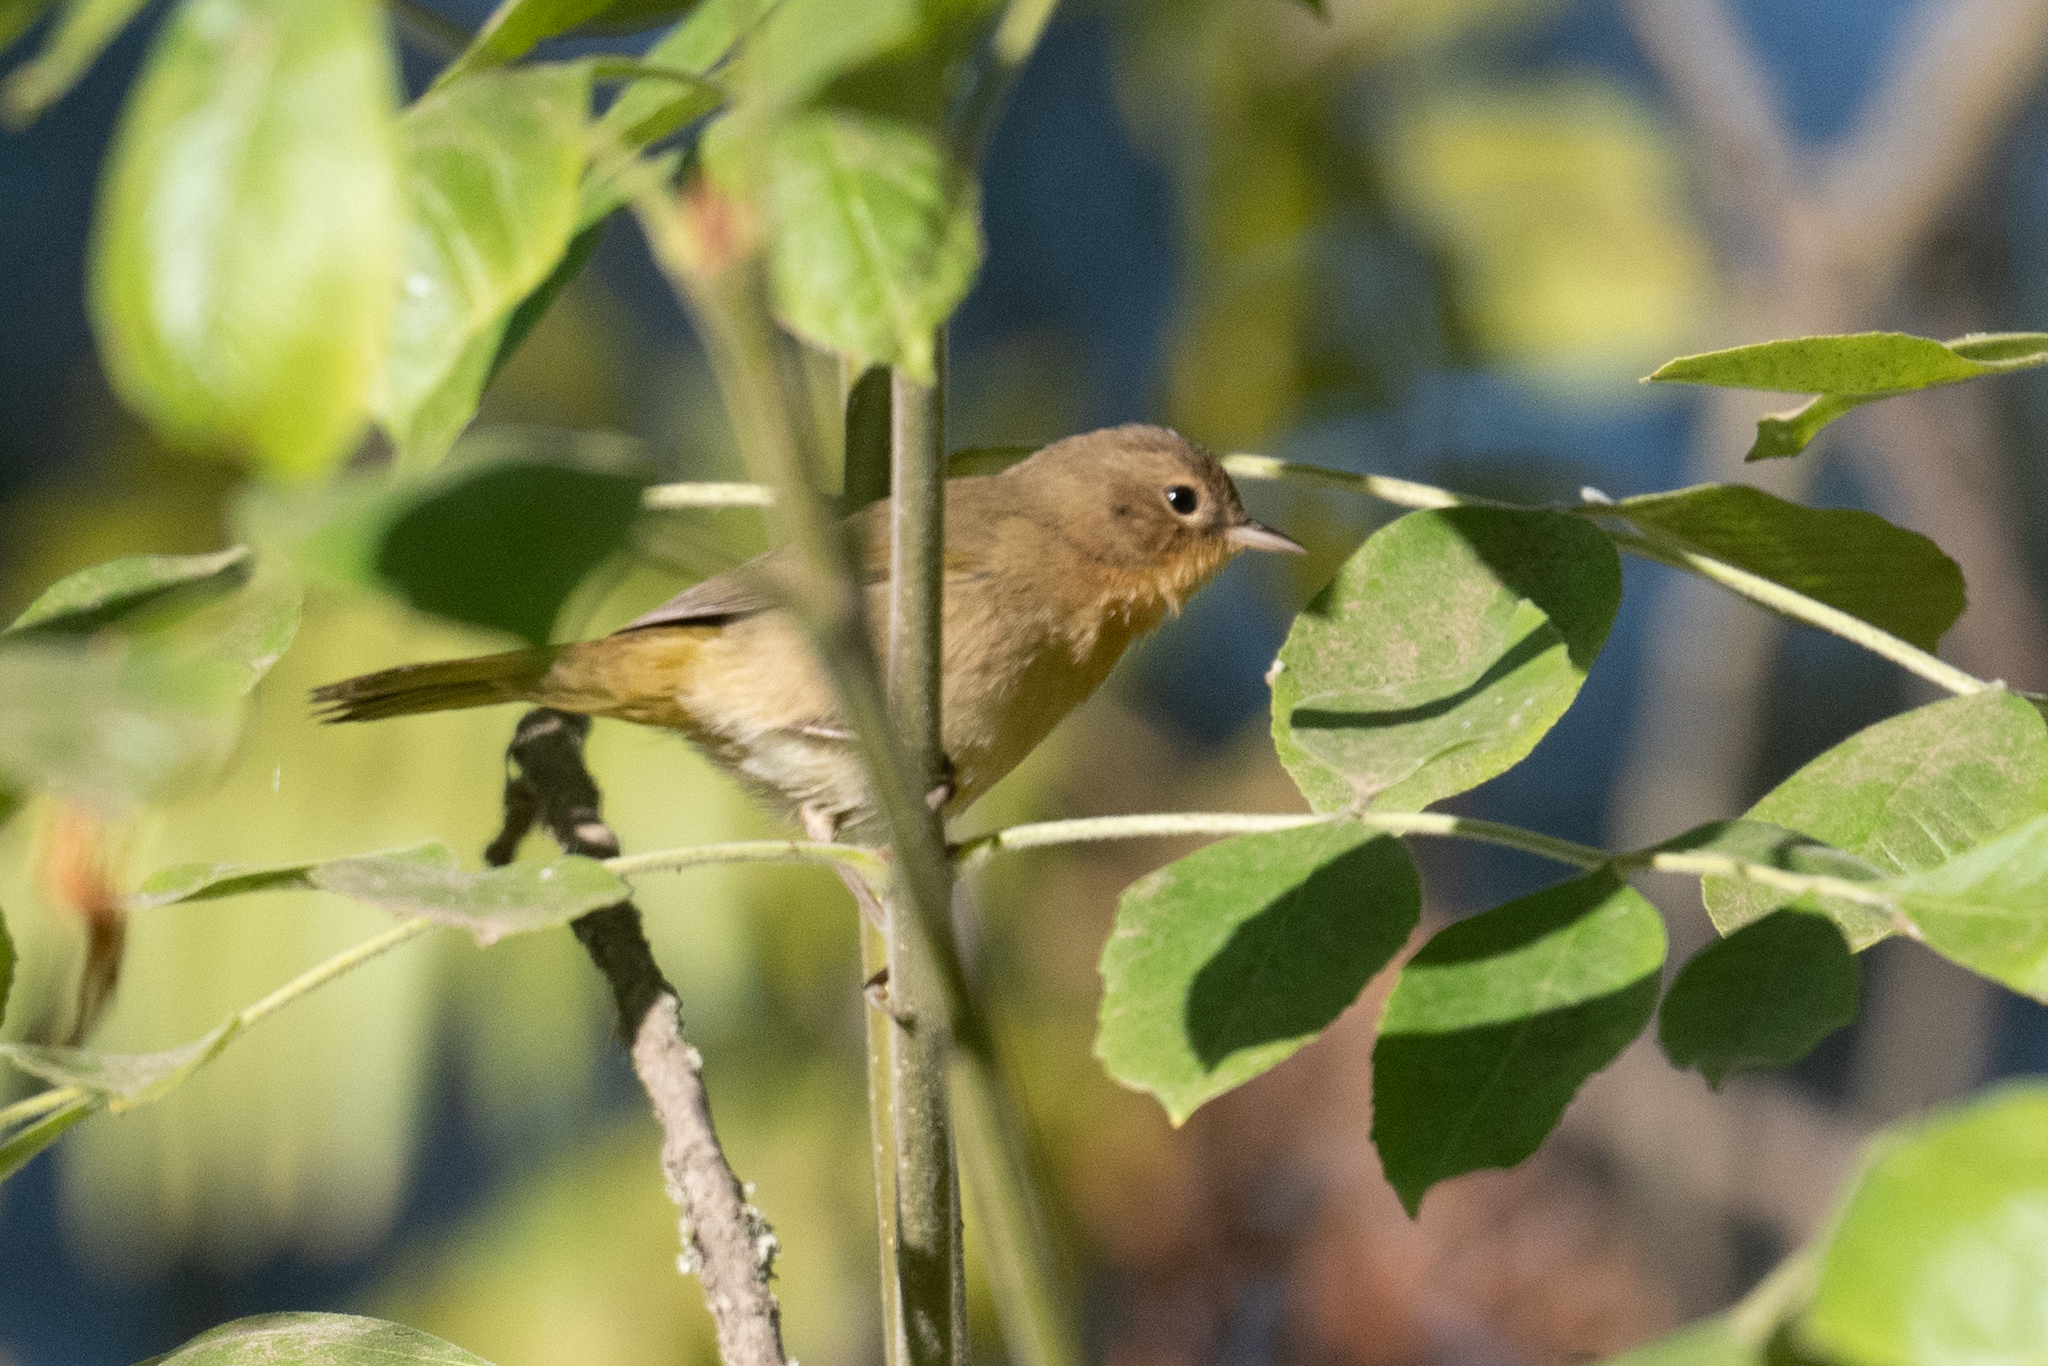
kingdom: Animalia
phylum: Chordata
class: Aves
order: Passeriformes
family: Parulidae
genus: Geothlypis
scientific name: Geothlypis trichas
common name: Common yellowthroat
